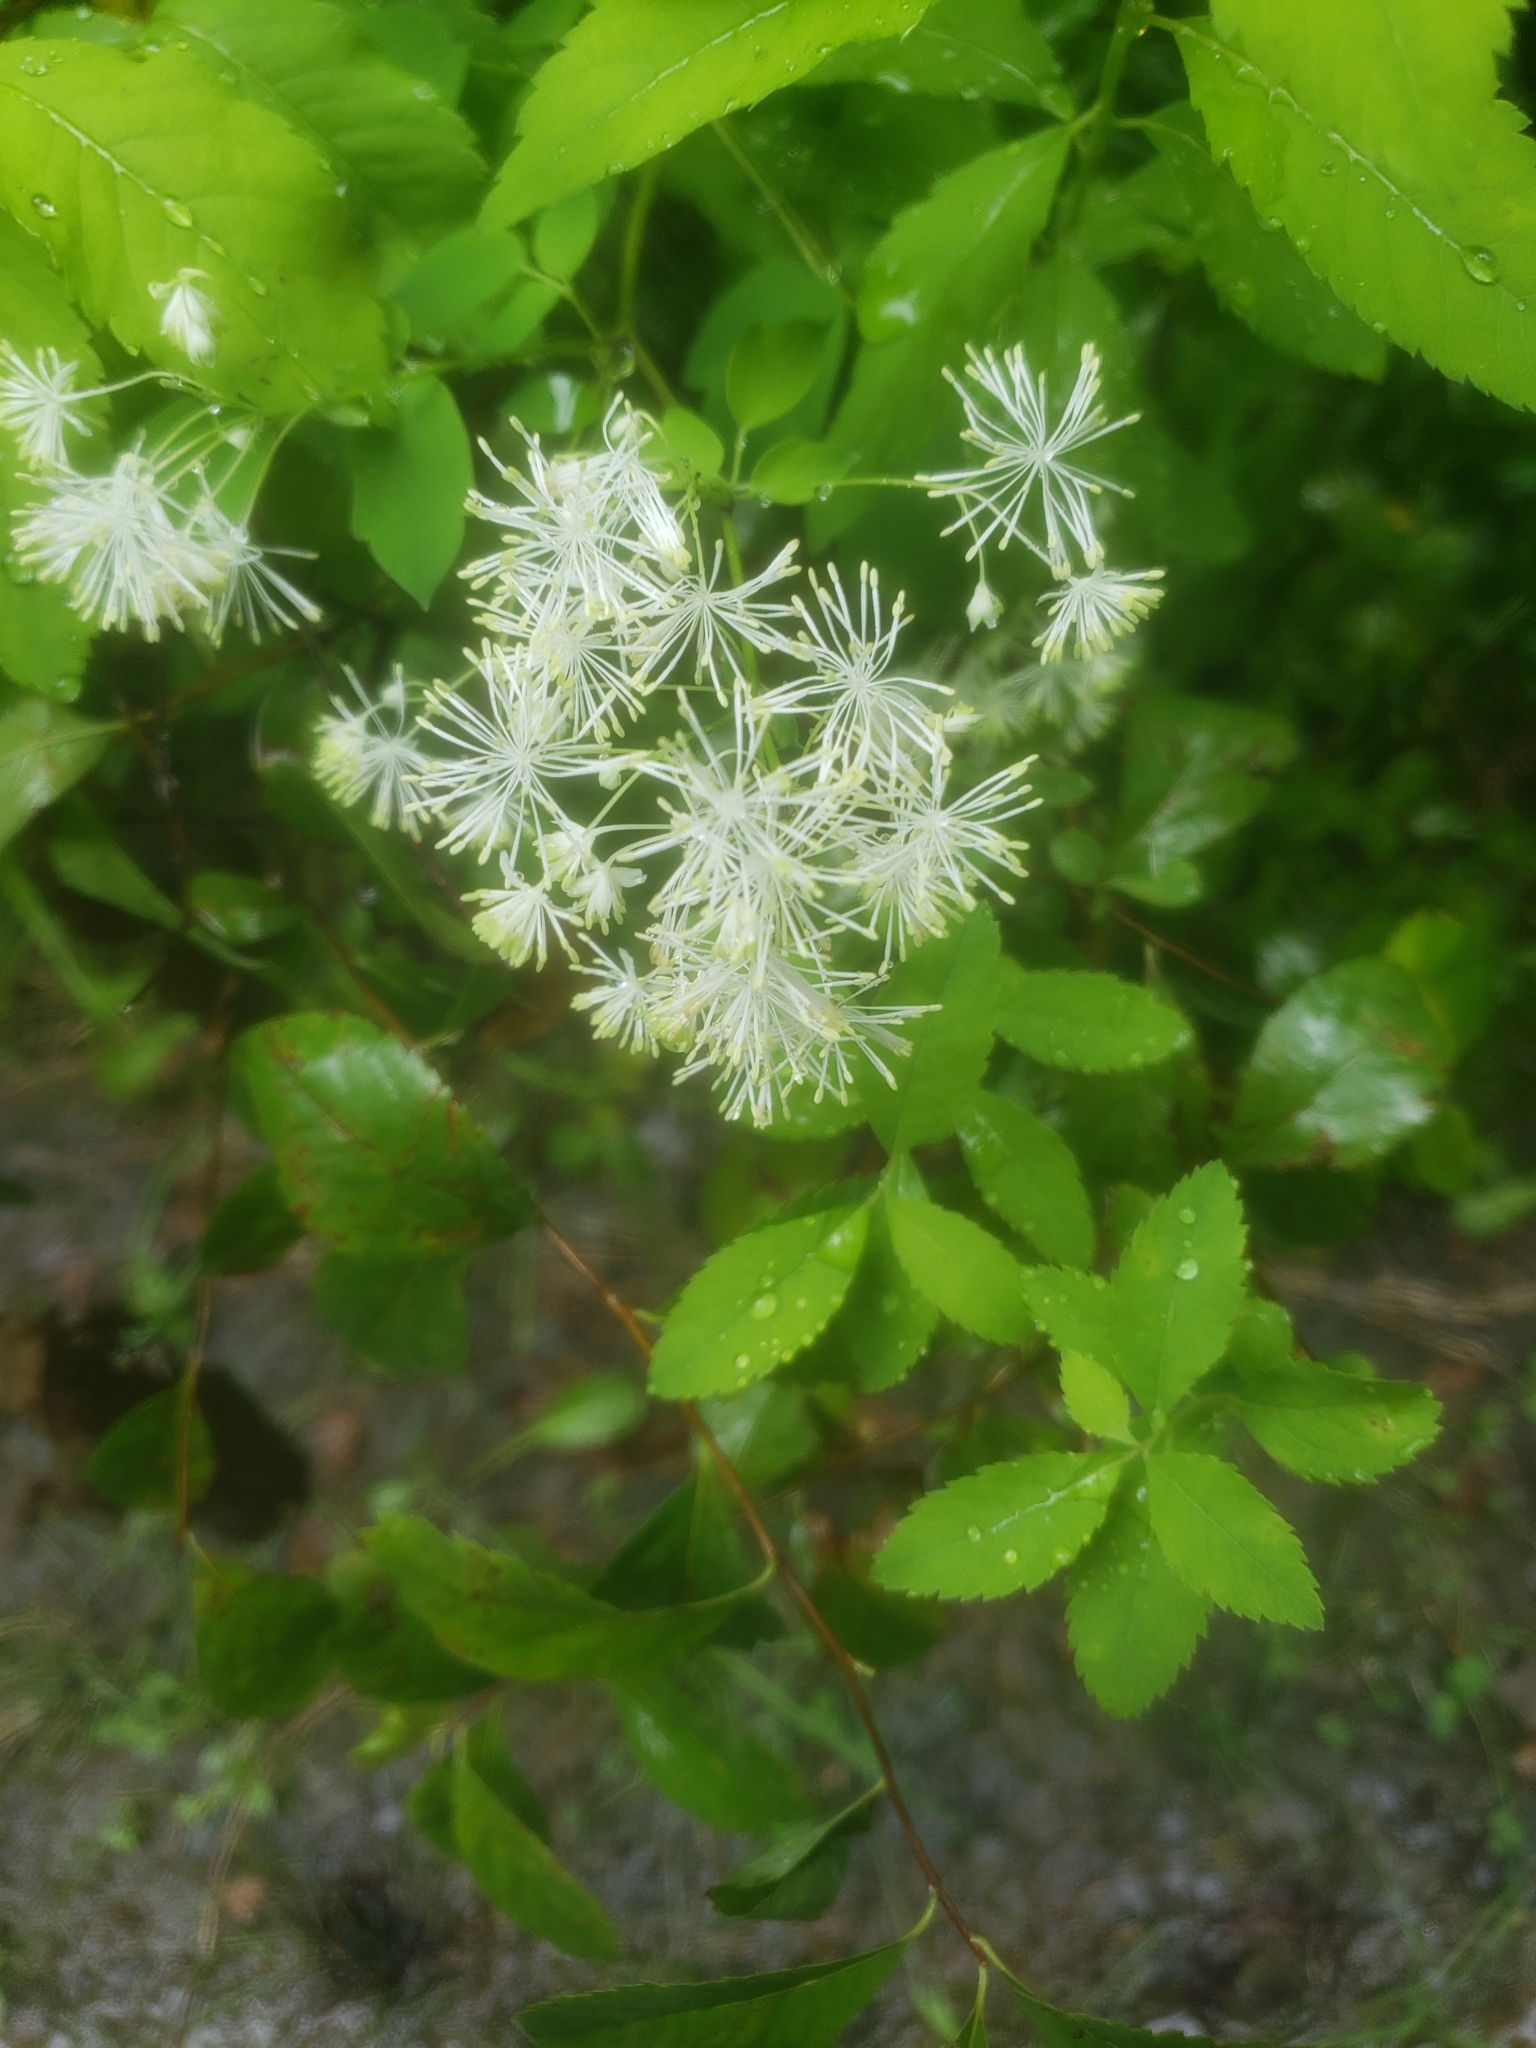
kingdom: Plantae
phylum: Tracheophyta
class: Magnoliopsida
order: Ranunculales
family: Ranunculaceae
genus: Thalictrum
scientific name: Thalictrum pubescens
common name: King-of-the-meadow
